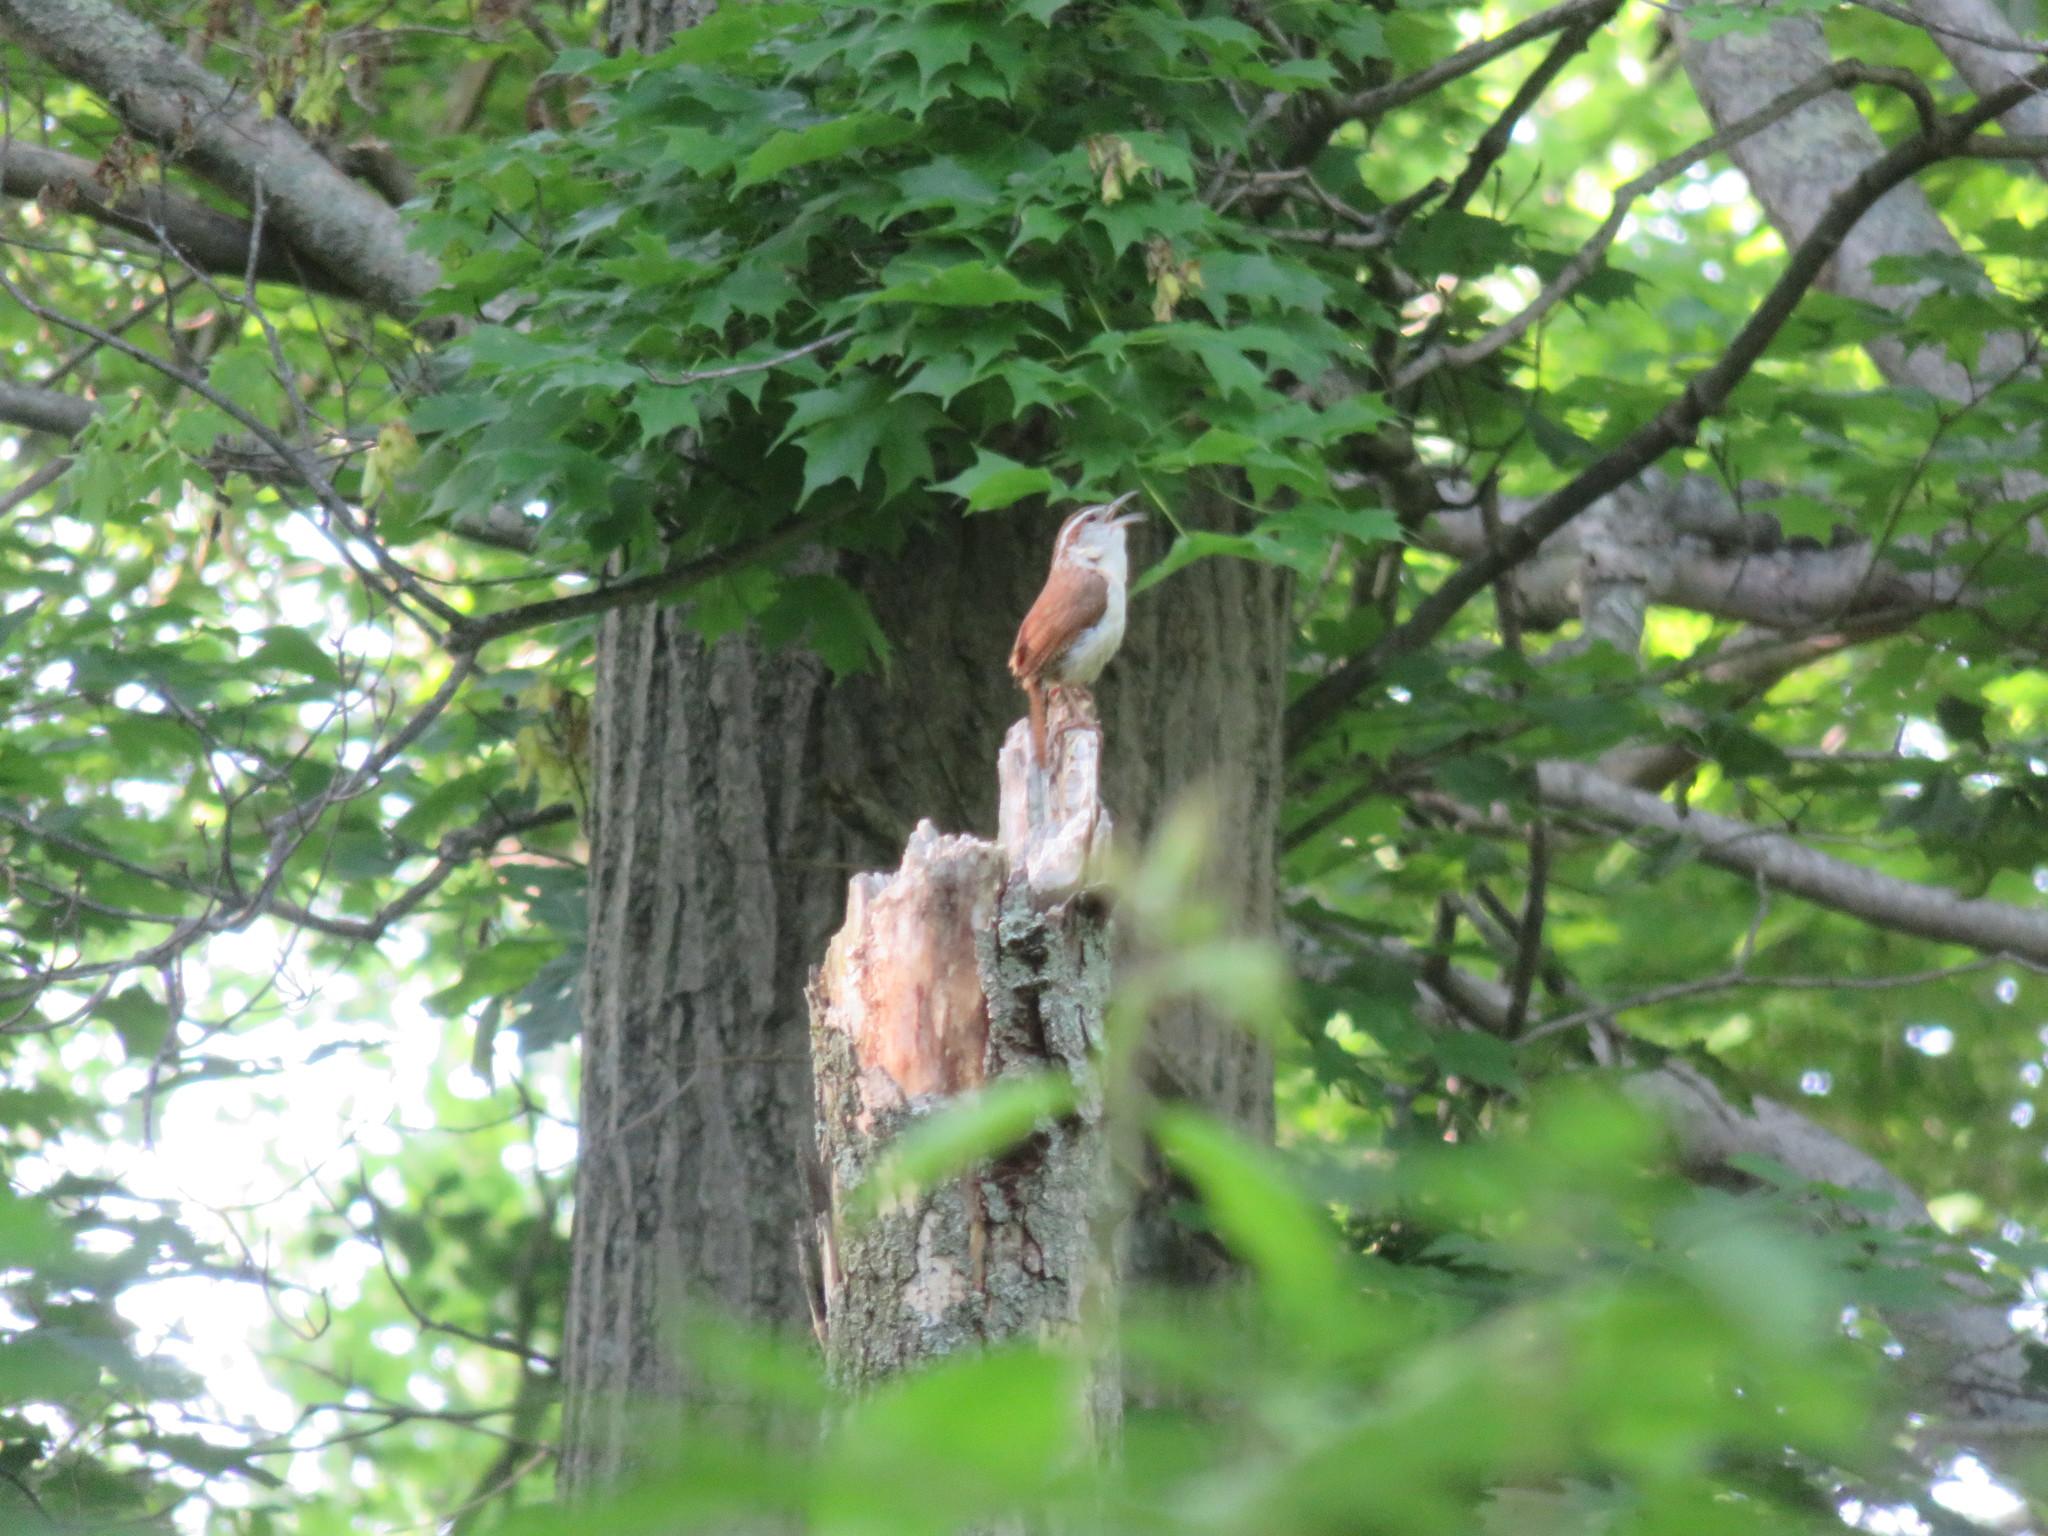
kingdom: Animalia
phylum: Chordata
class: Aves
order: Passeriformes
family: Troglodytidae
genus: Thryothorus
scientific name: Thryothorus ludovicianus
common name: Carolina wren
